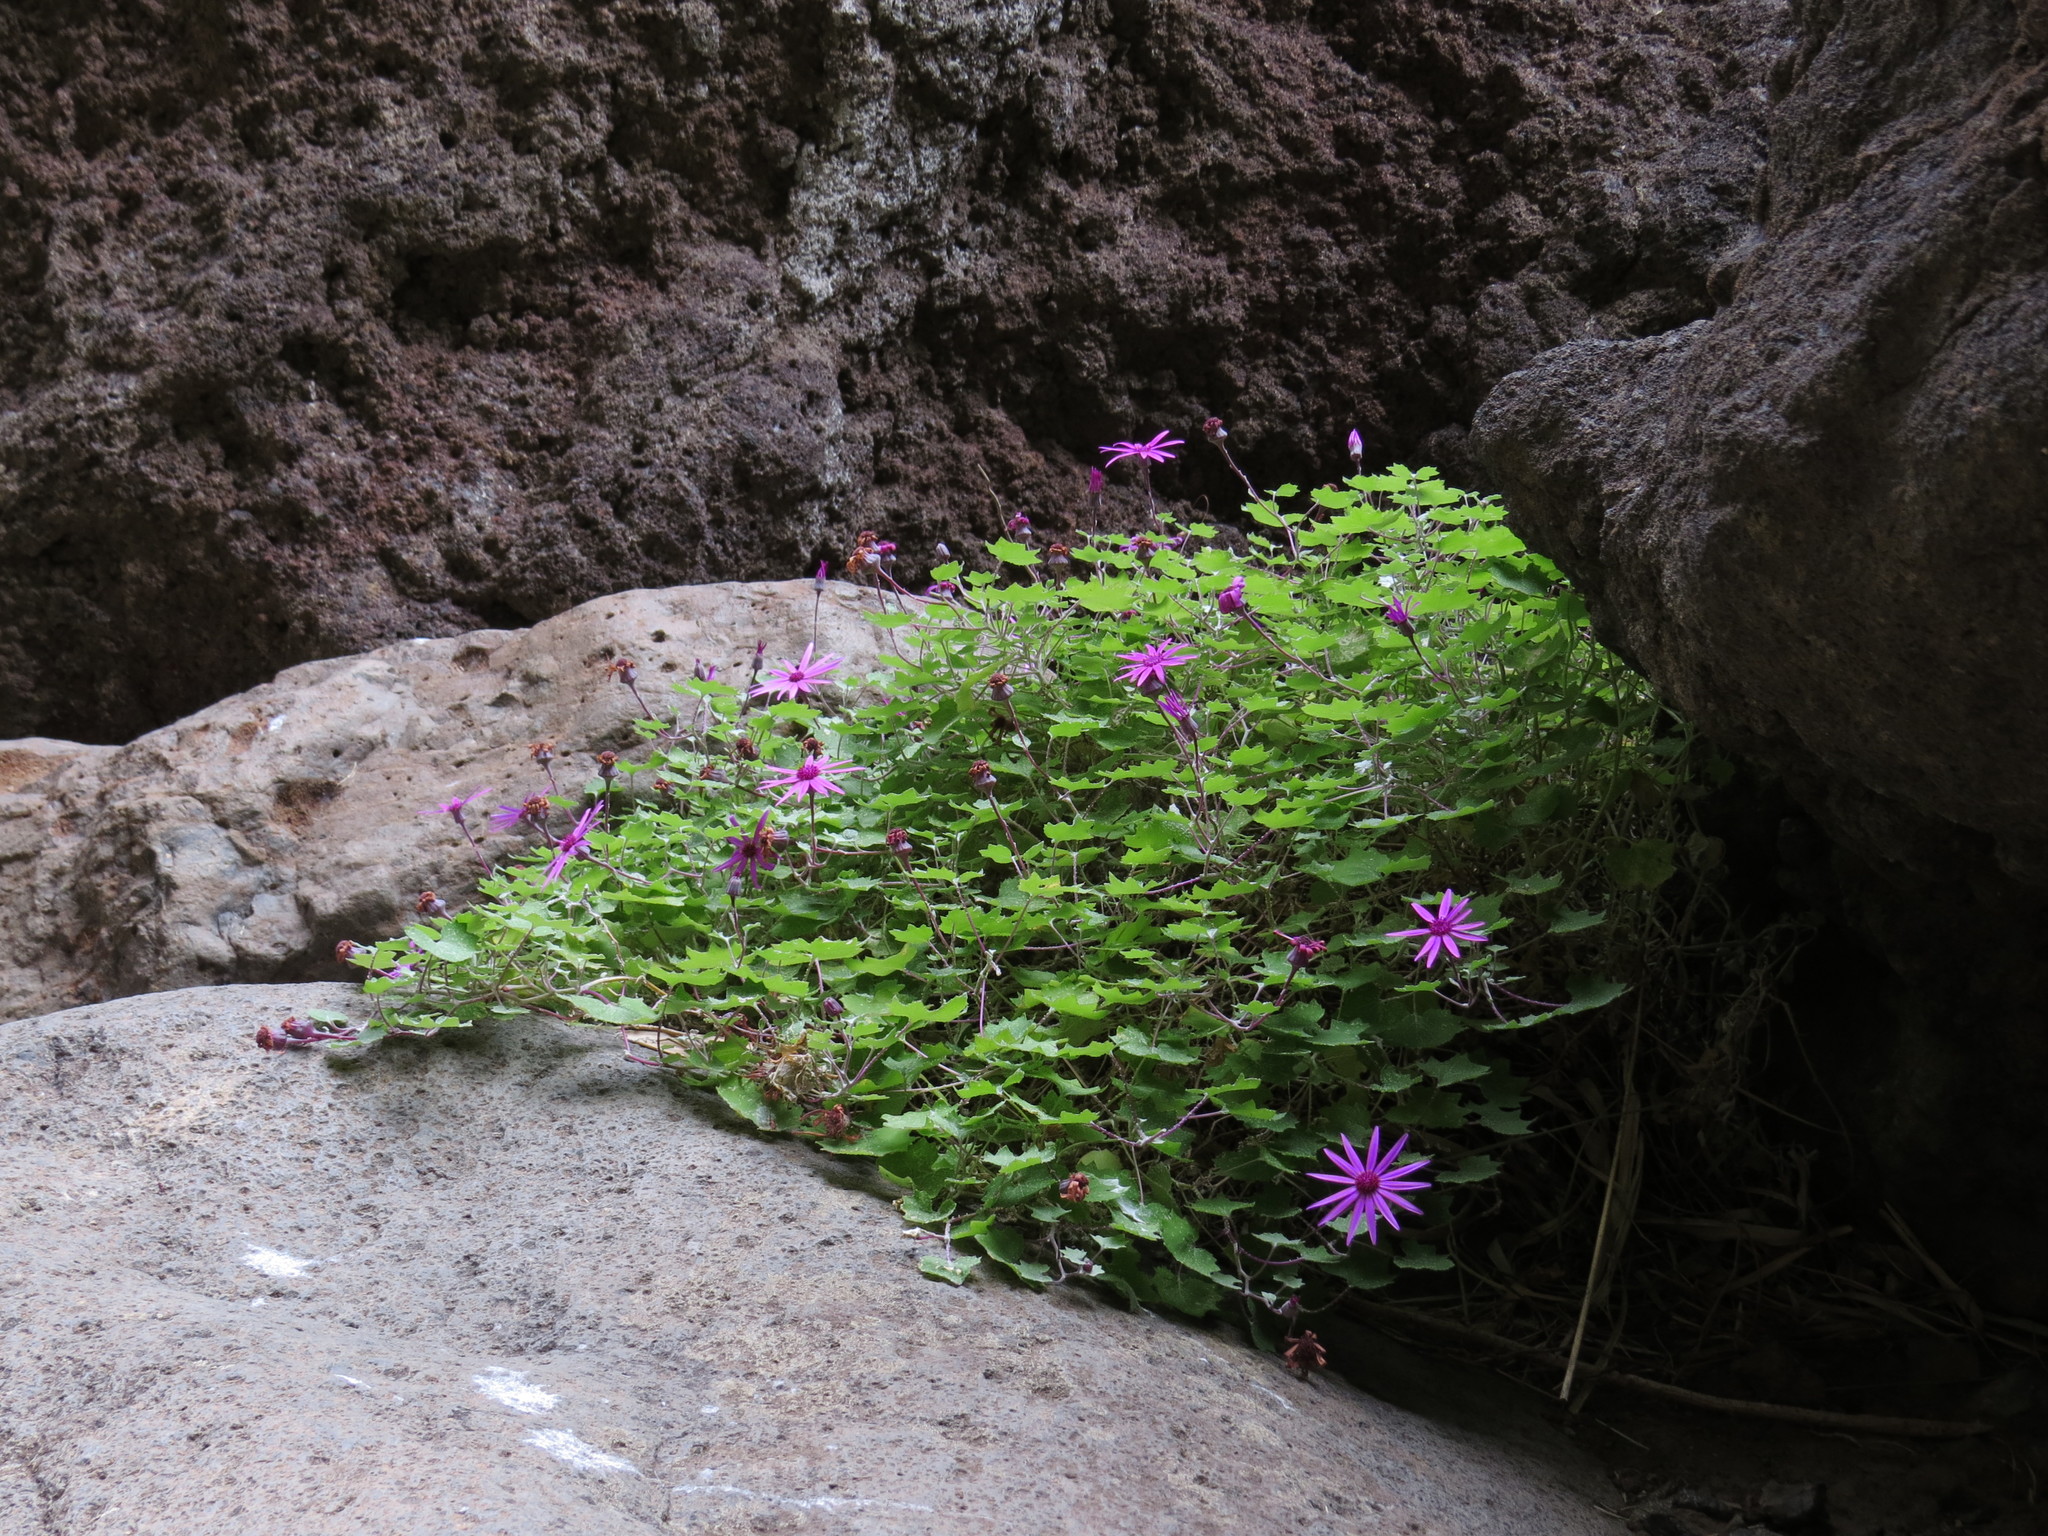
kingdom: Plantae
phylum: Tracheophyta
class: Magnoliopsida
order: Asterales
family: Asteraceae
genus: Pericallis
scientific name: Pericallis lanata
